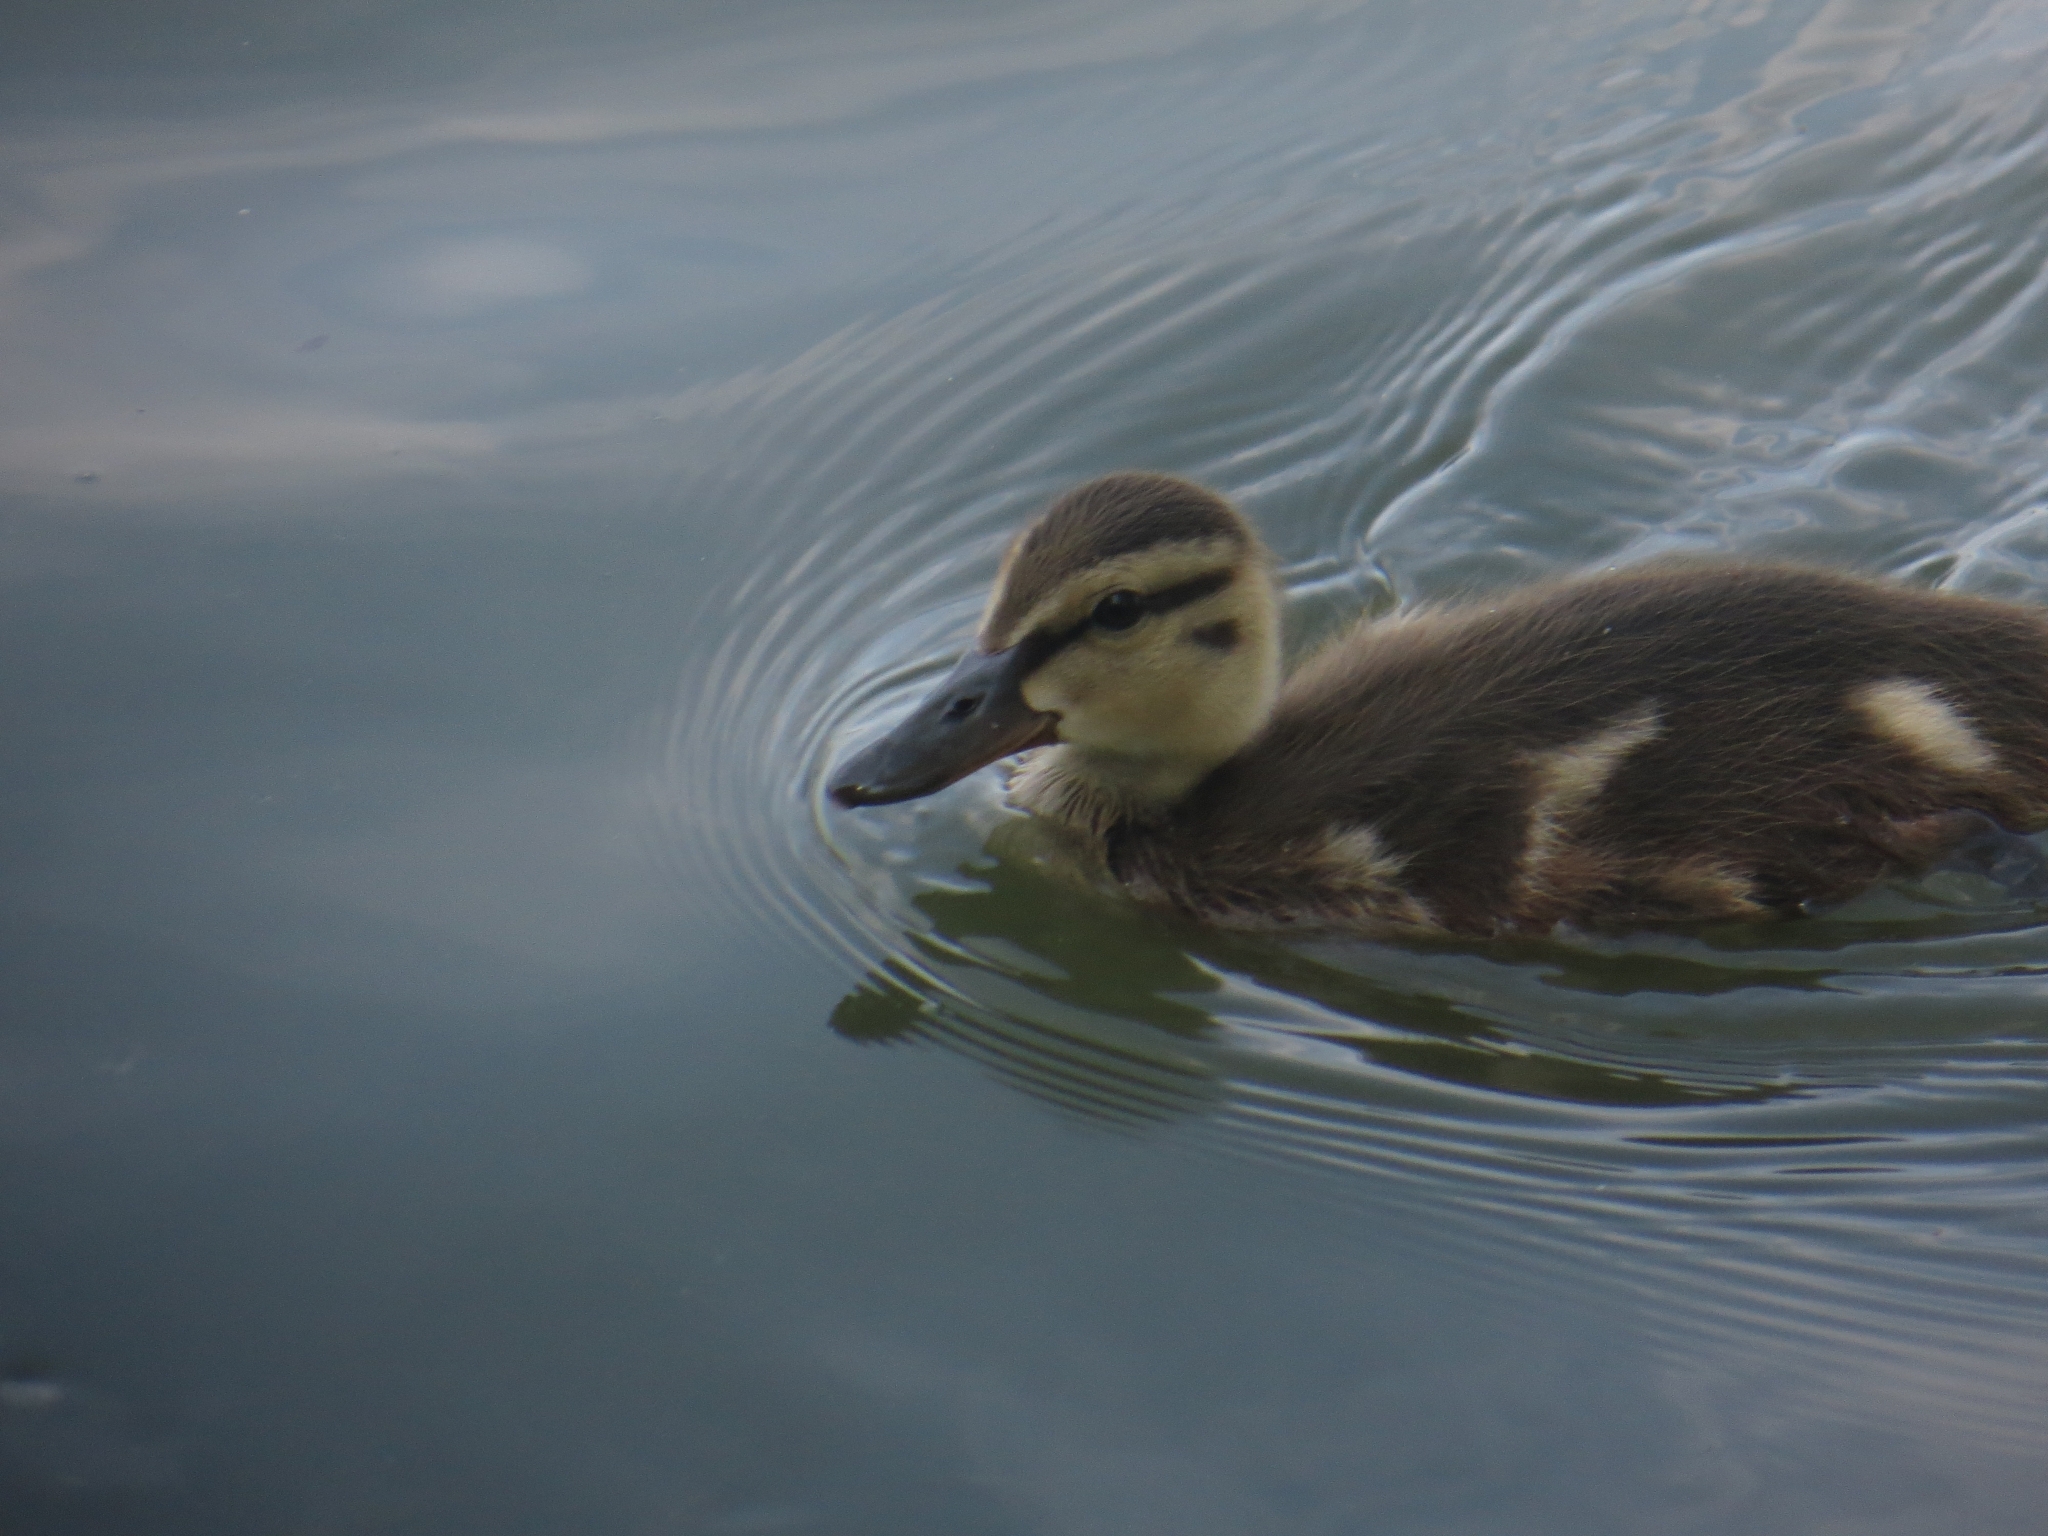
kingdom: Animalia
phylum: Chordata
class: Aves
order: Anseriformes
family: Anatidae
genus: Anas
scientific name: Anas platyrhynchos
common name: Mallard
